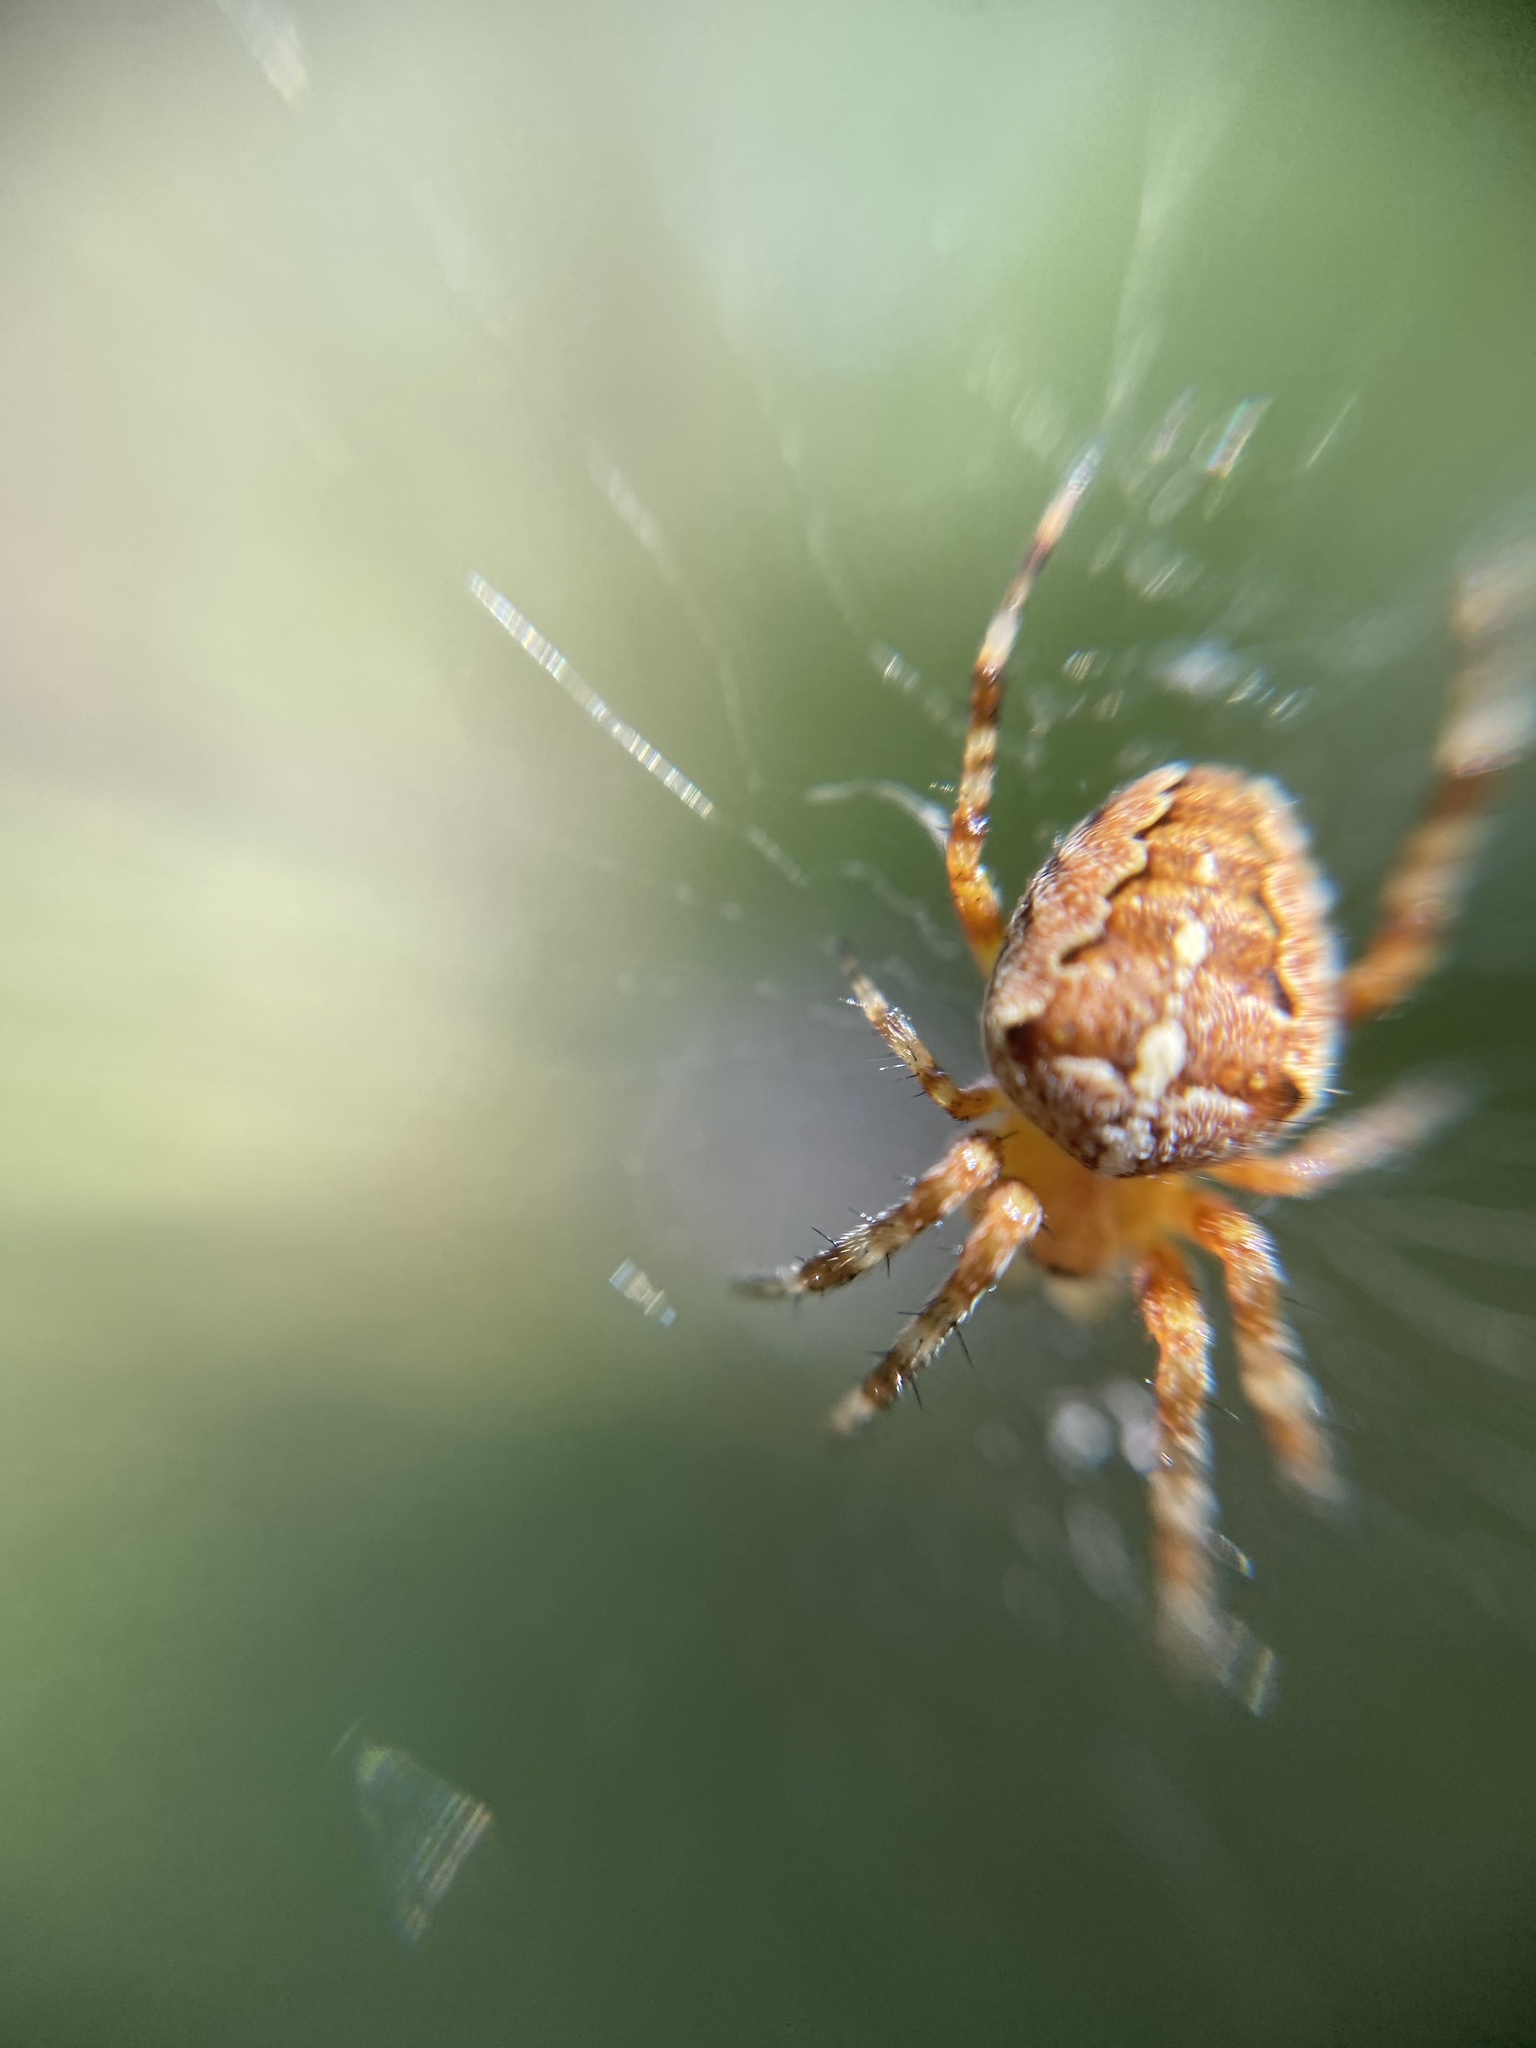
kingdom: Animalia
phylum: Arthropoda
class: Arachnida
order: Araneae
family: Araneidae
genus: Araneus
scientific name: Araneus diadematus
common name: Cross orbweaver
